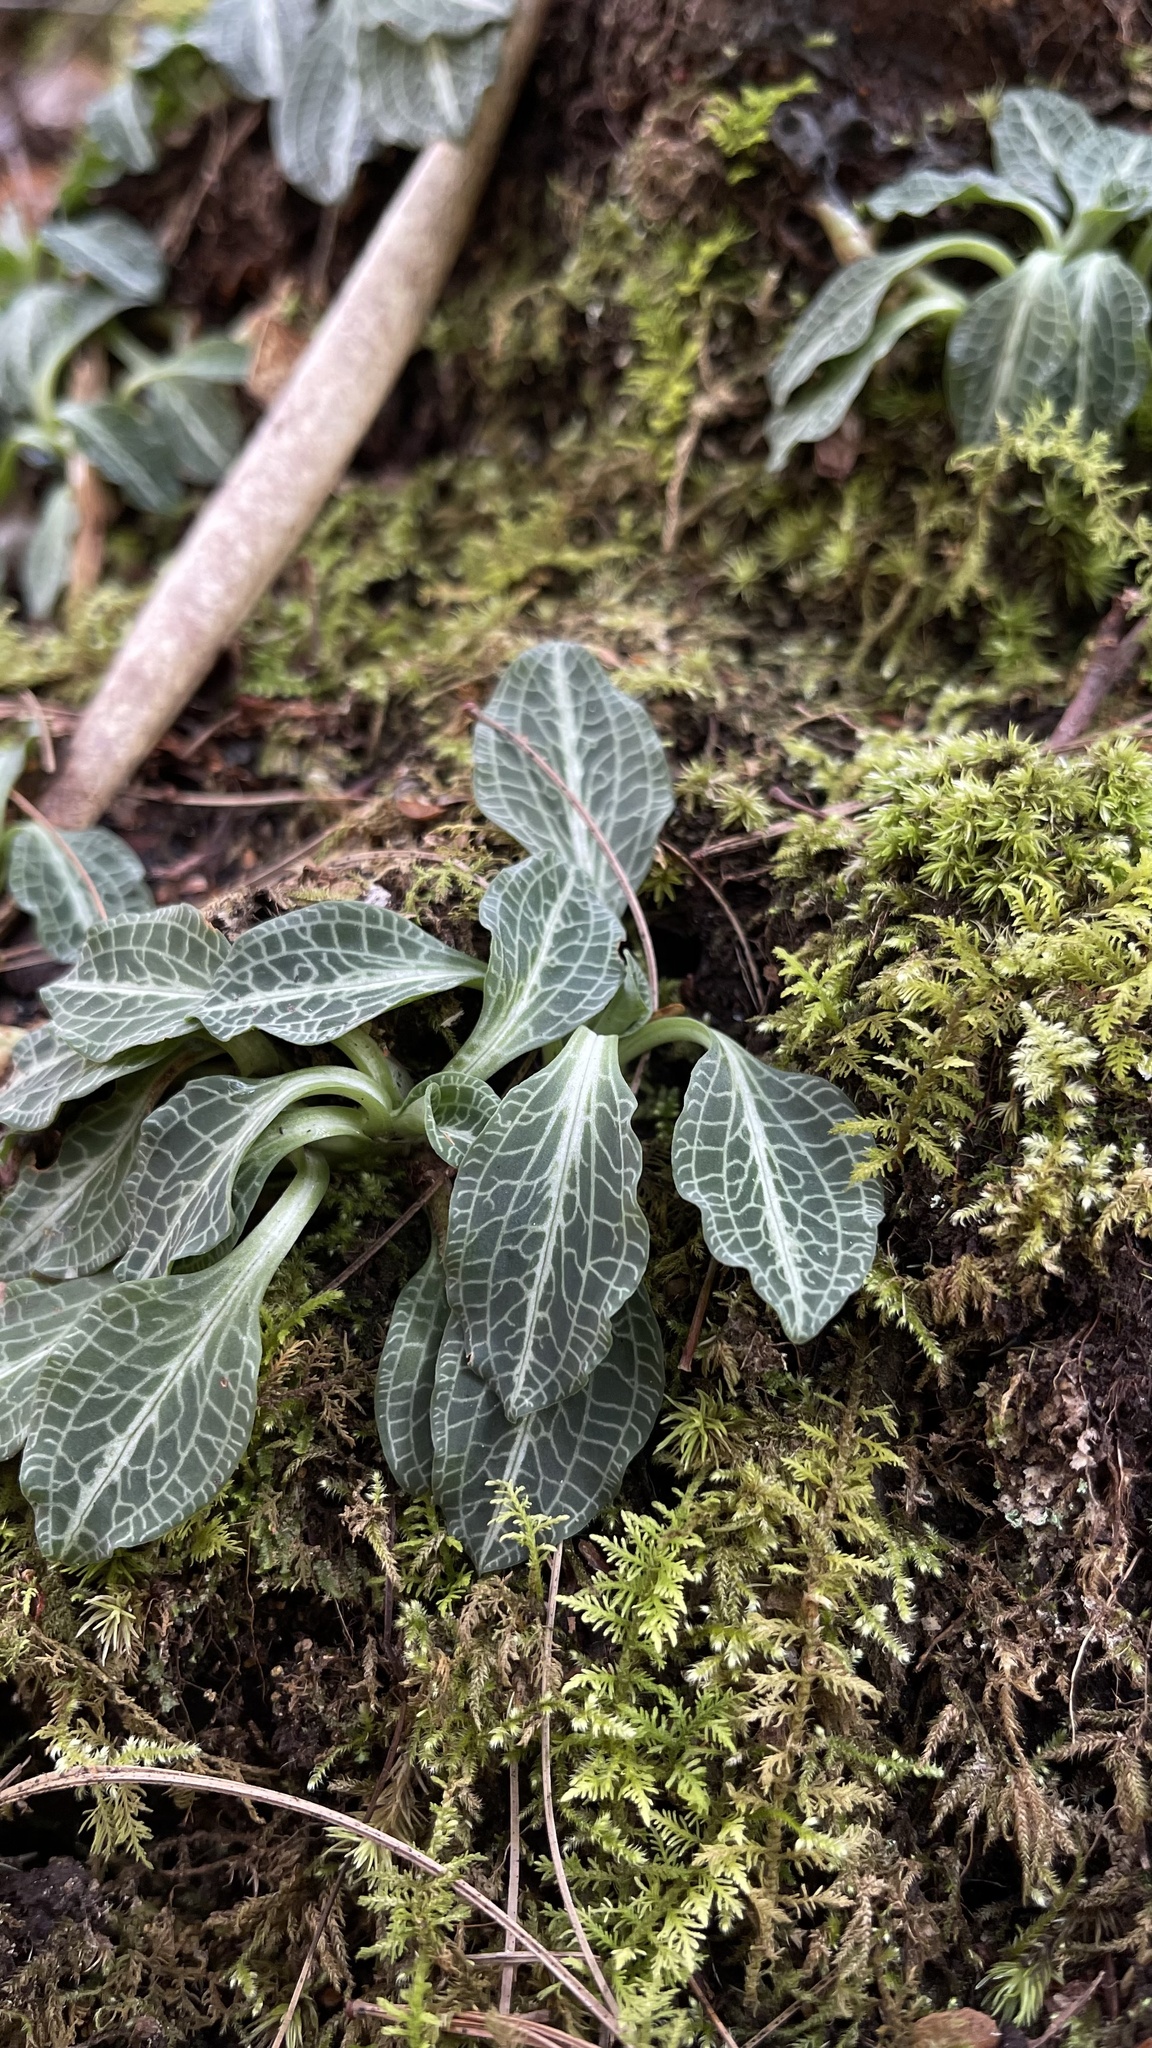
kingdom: Plantae
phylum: Tracheophyta
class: Liliopsida
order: Asparagales
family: Orchidaceae
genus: Goodyera
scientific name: Goodyera pubescens
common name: Downy rattlesnake-plantain
